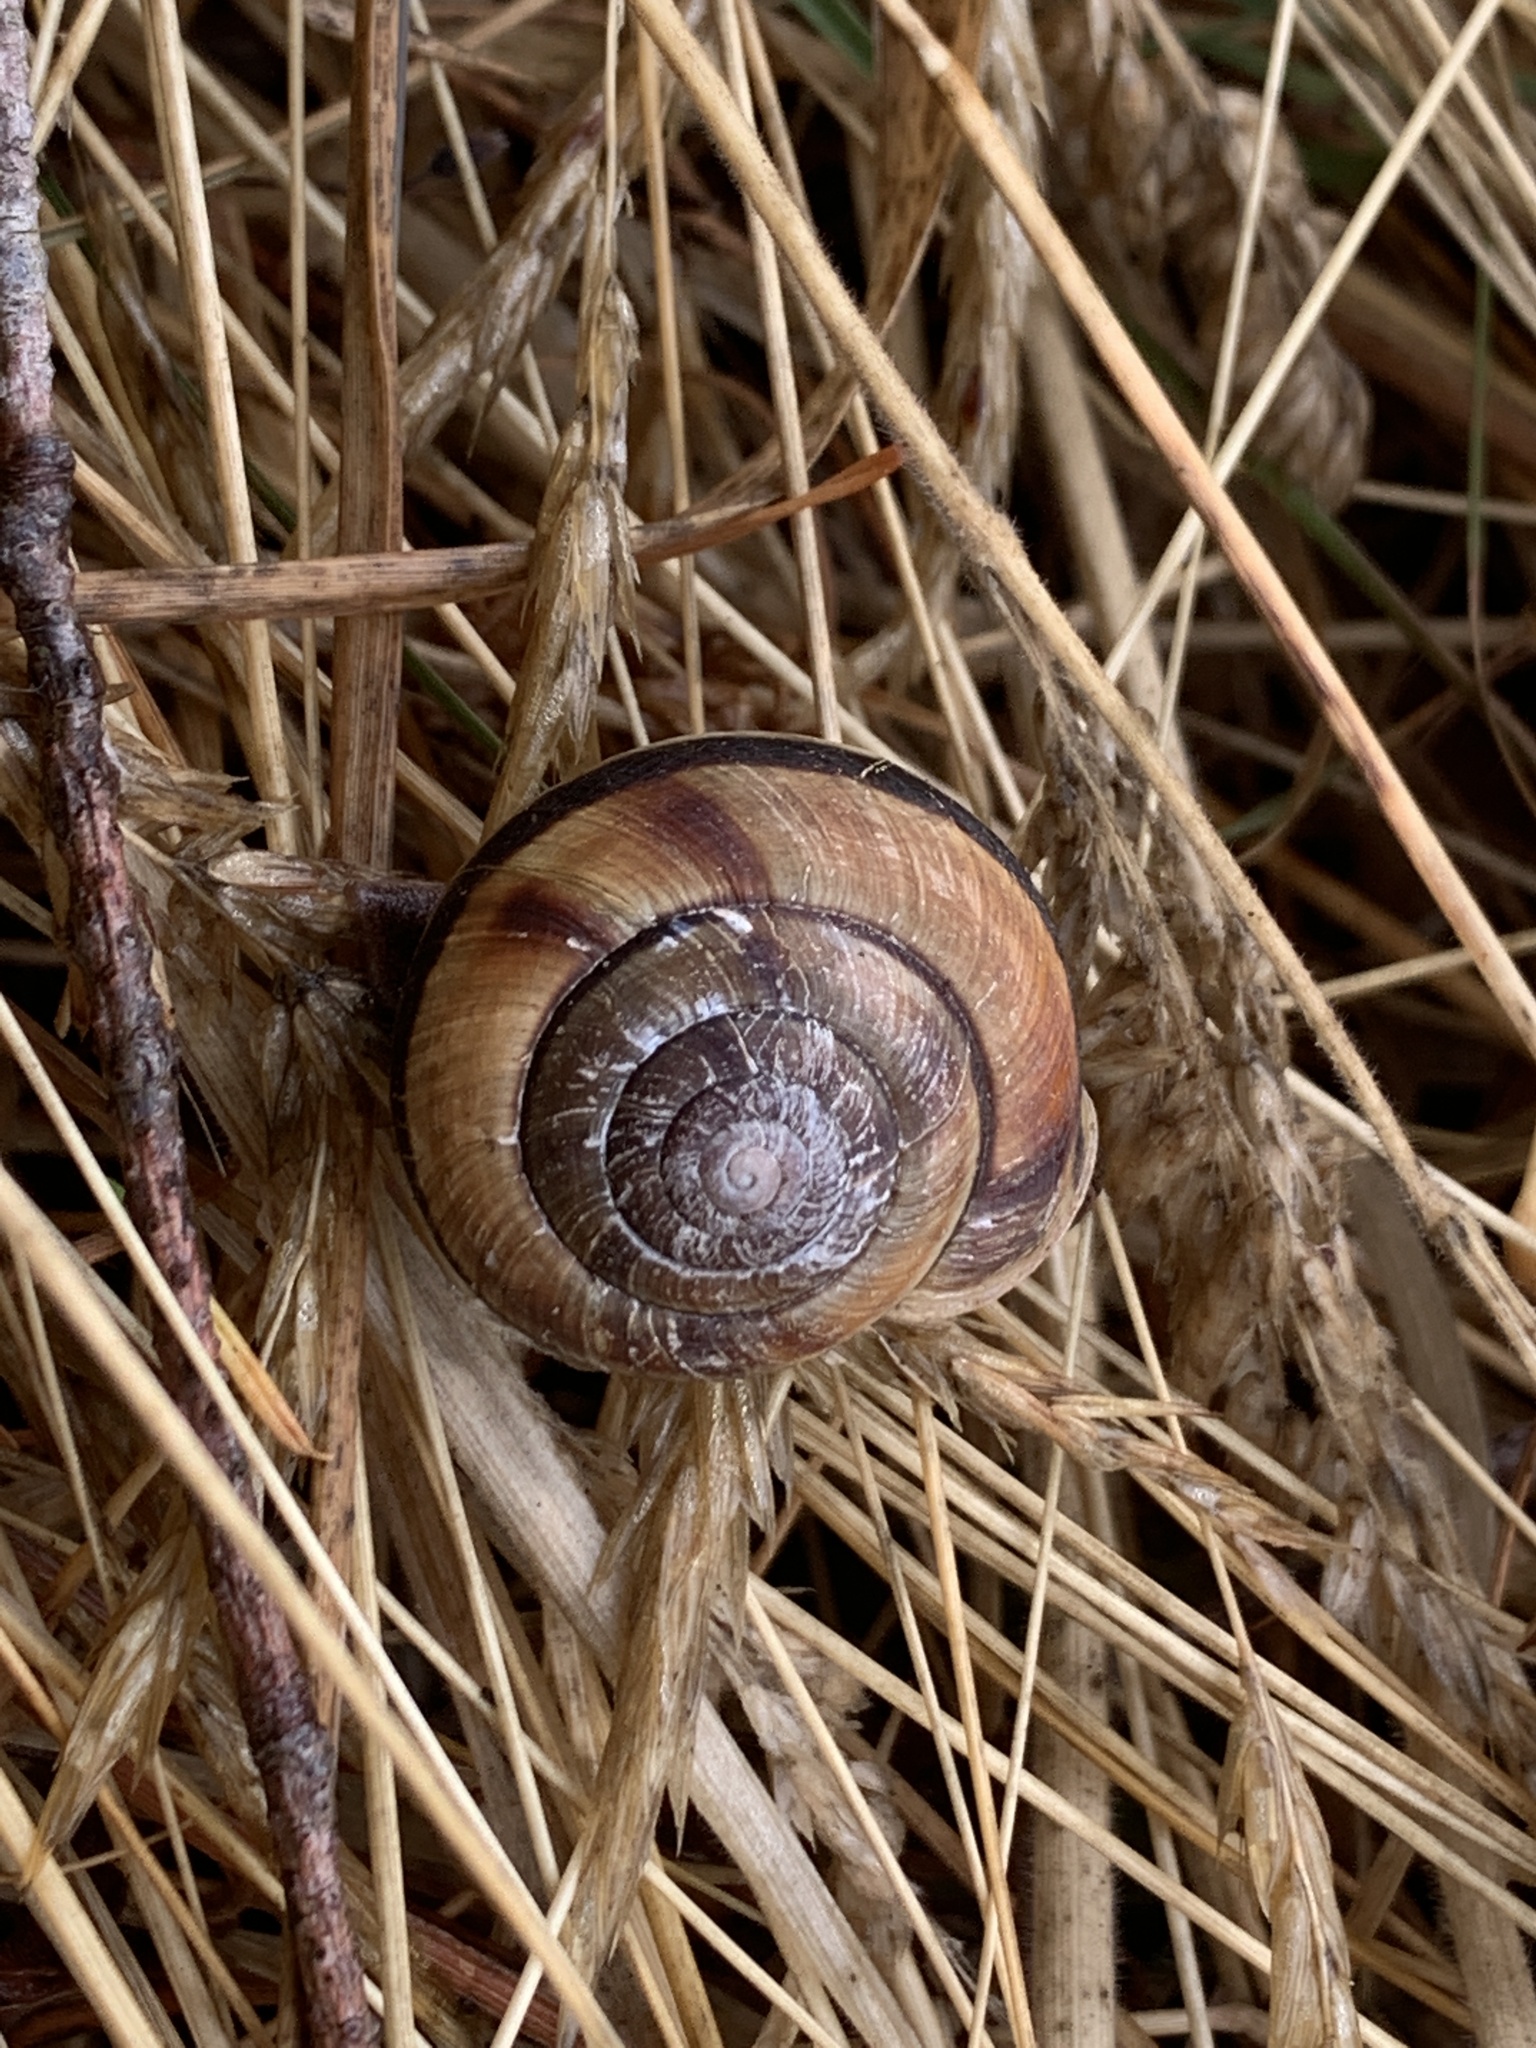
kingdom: Animalia
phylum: Mollusca
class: Gastropoda
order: Stylommatophora
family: Xanthonychidae
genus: Monadenia
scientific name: Monadenia fidelis
